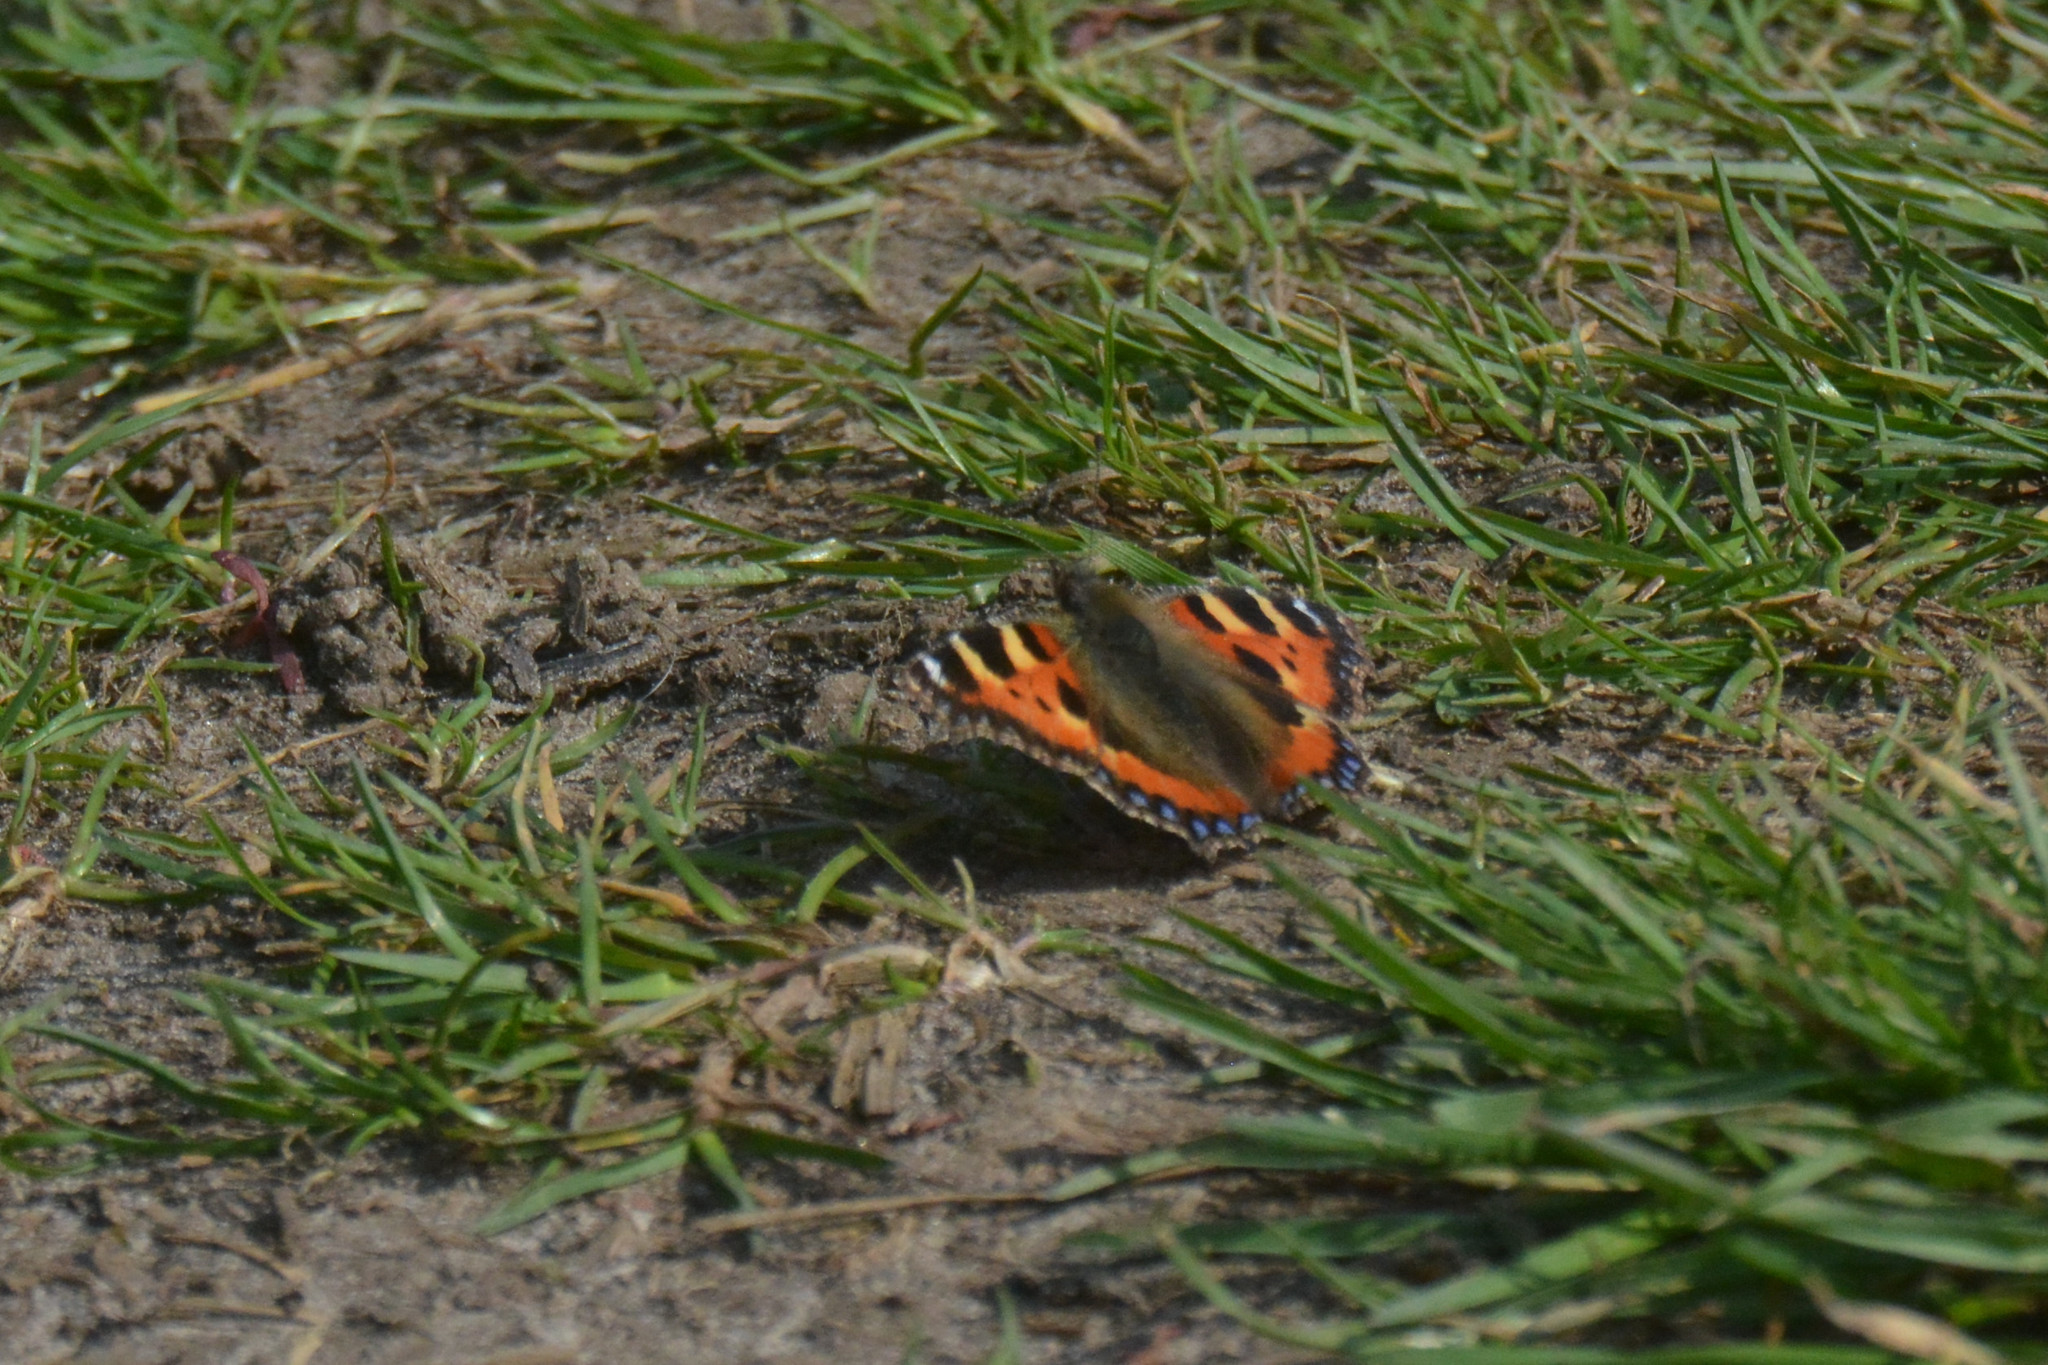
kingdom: Animalia
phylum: Arthropoda
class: Insecta
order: Lepidoptera
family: Nymphalidae
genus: Aglais
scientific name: Aglais urticae
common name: Small tortoiseshell
